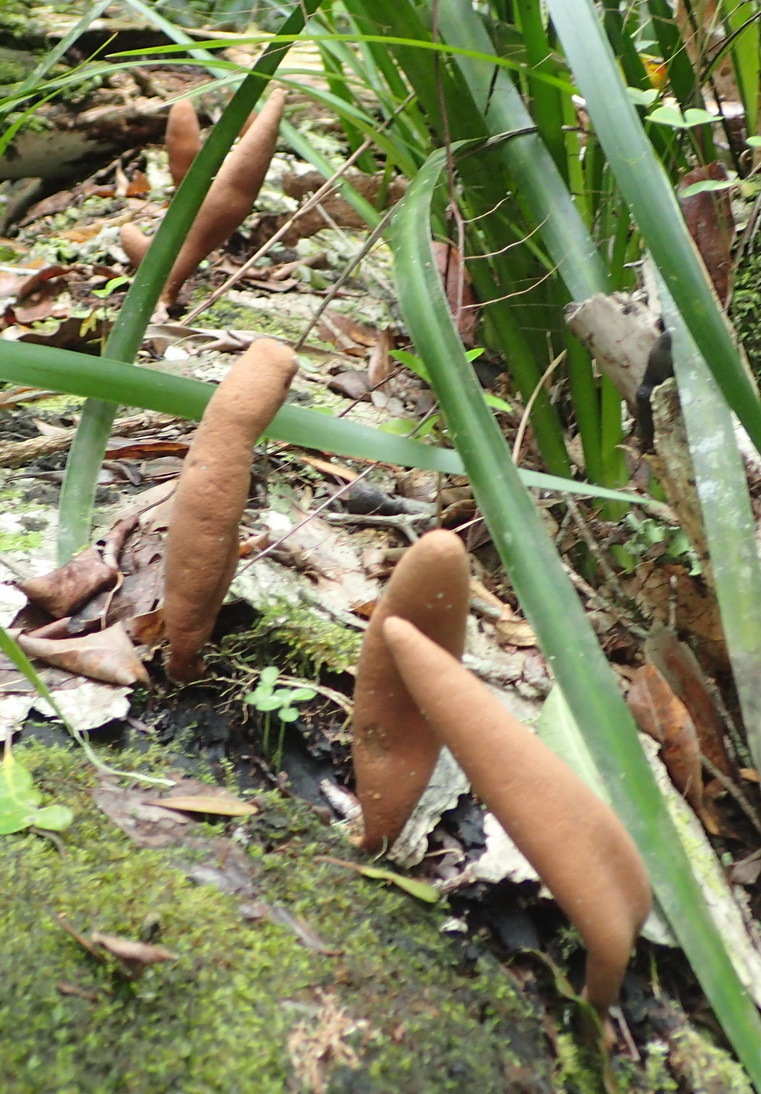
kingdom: Fungi
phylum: Ascomycota
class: Sordariomycetes
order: Xylariales
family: Xylariaceae
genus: Xylaria
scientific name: Xylaria telfairii
